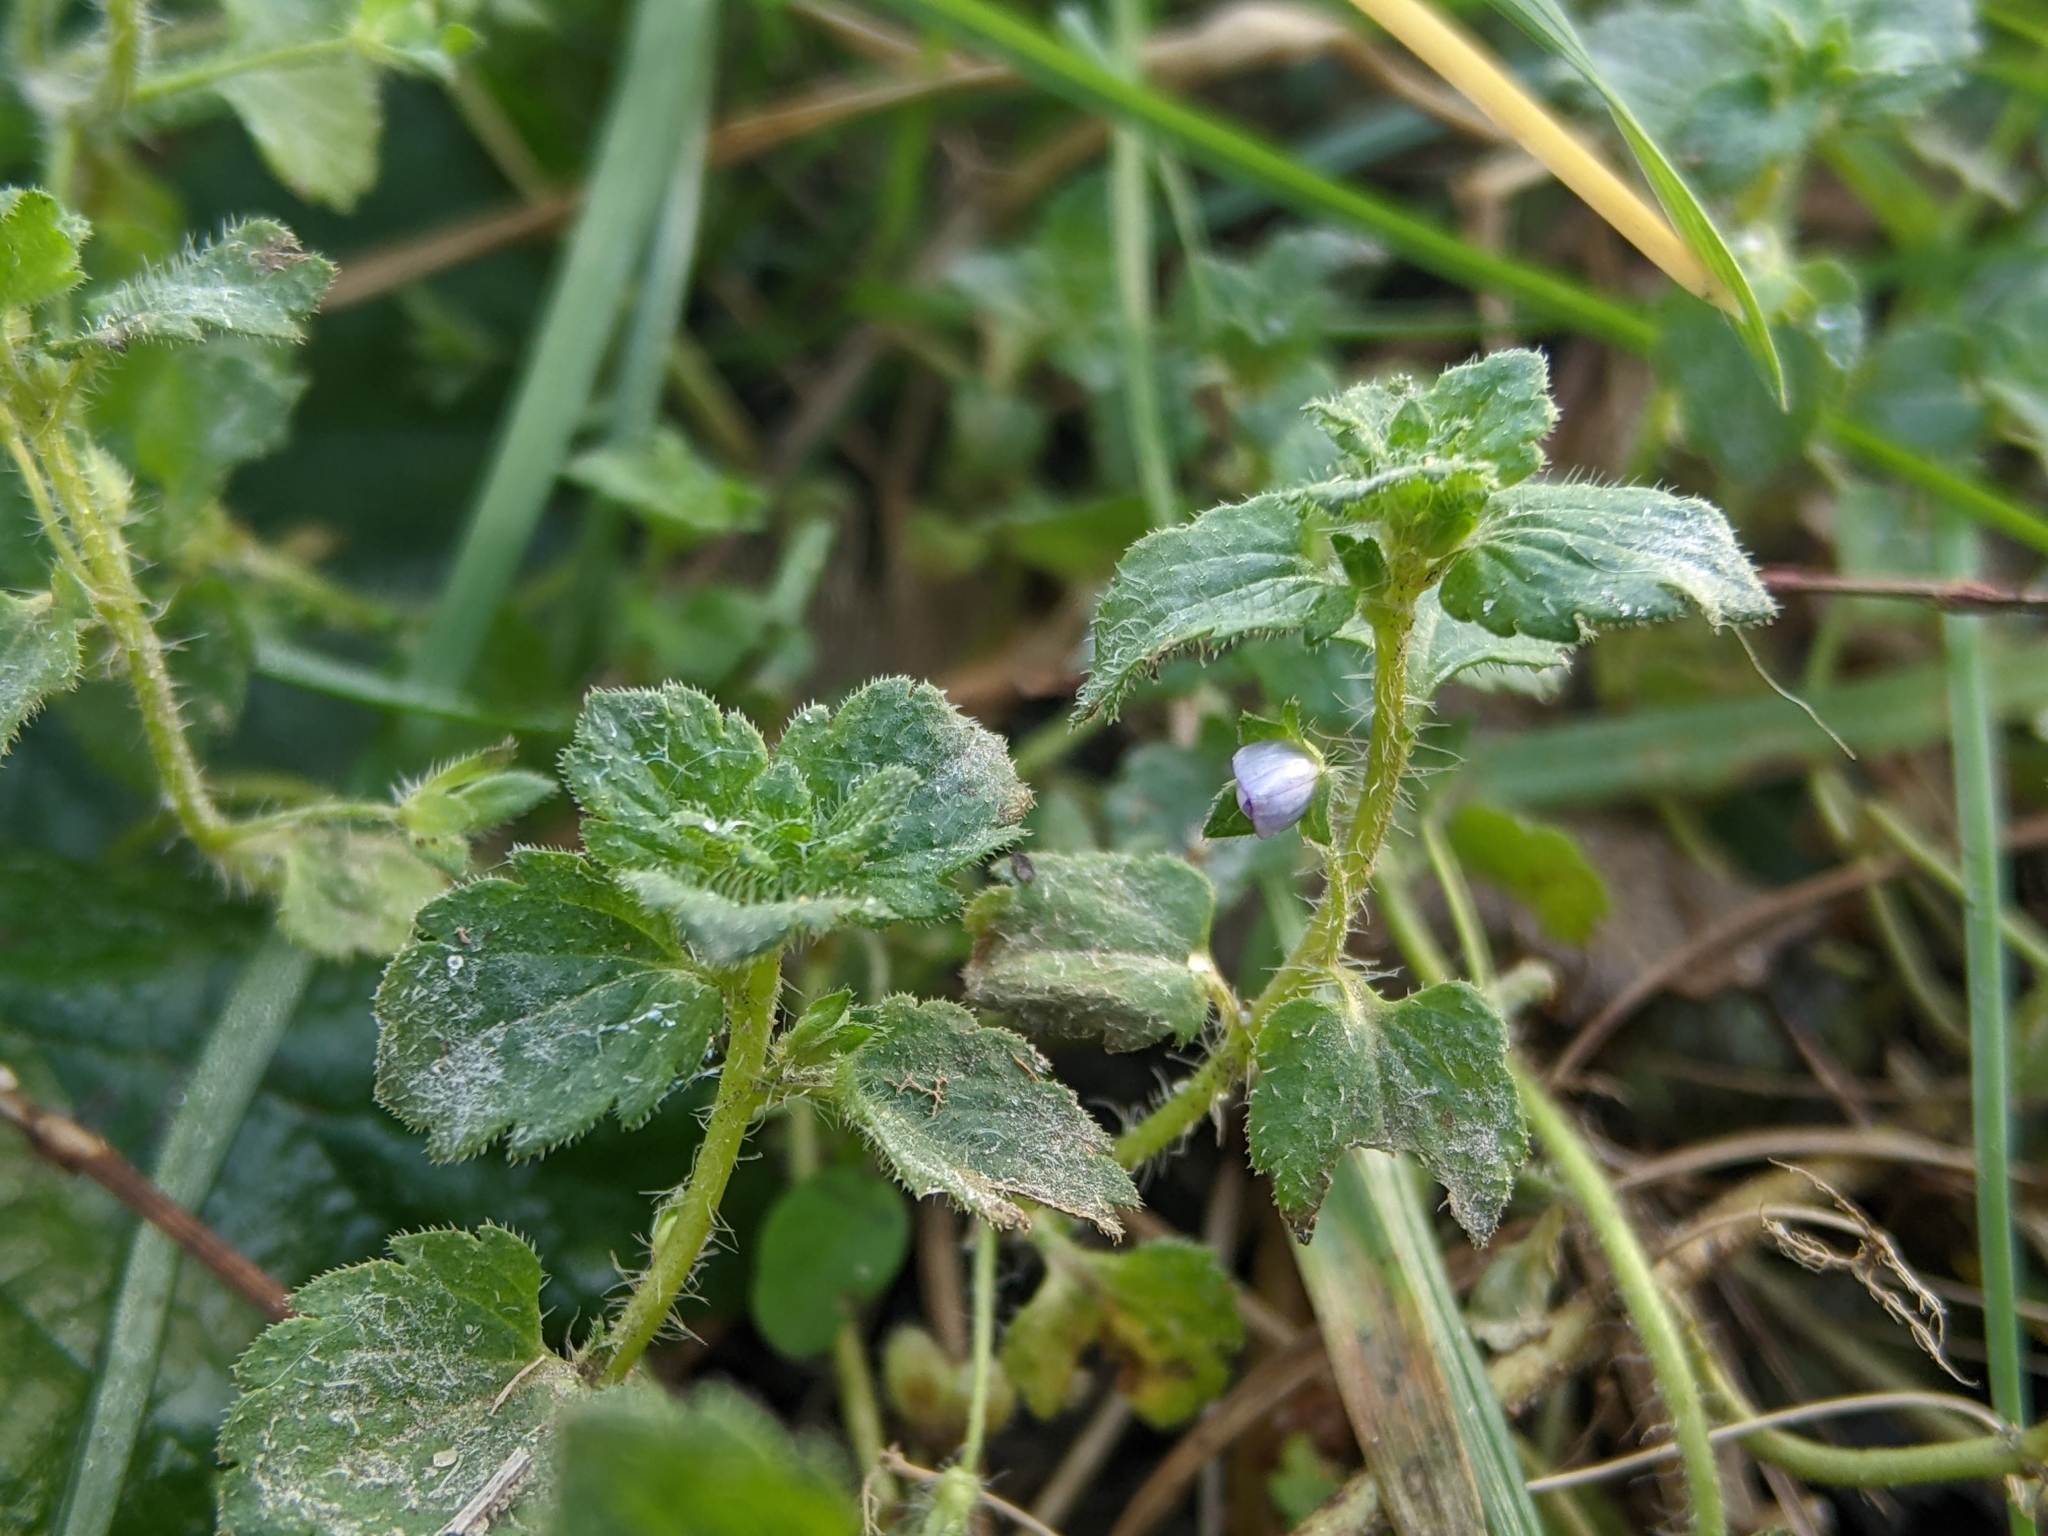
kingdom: Plantae
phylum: Tracheophyta
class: Magnoliopsida
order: Lamiales
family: Plantaginaceae
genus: Veronica
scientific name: Veronica persica
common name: Common field-speedwell
